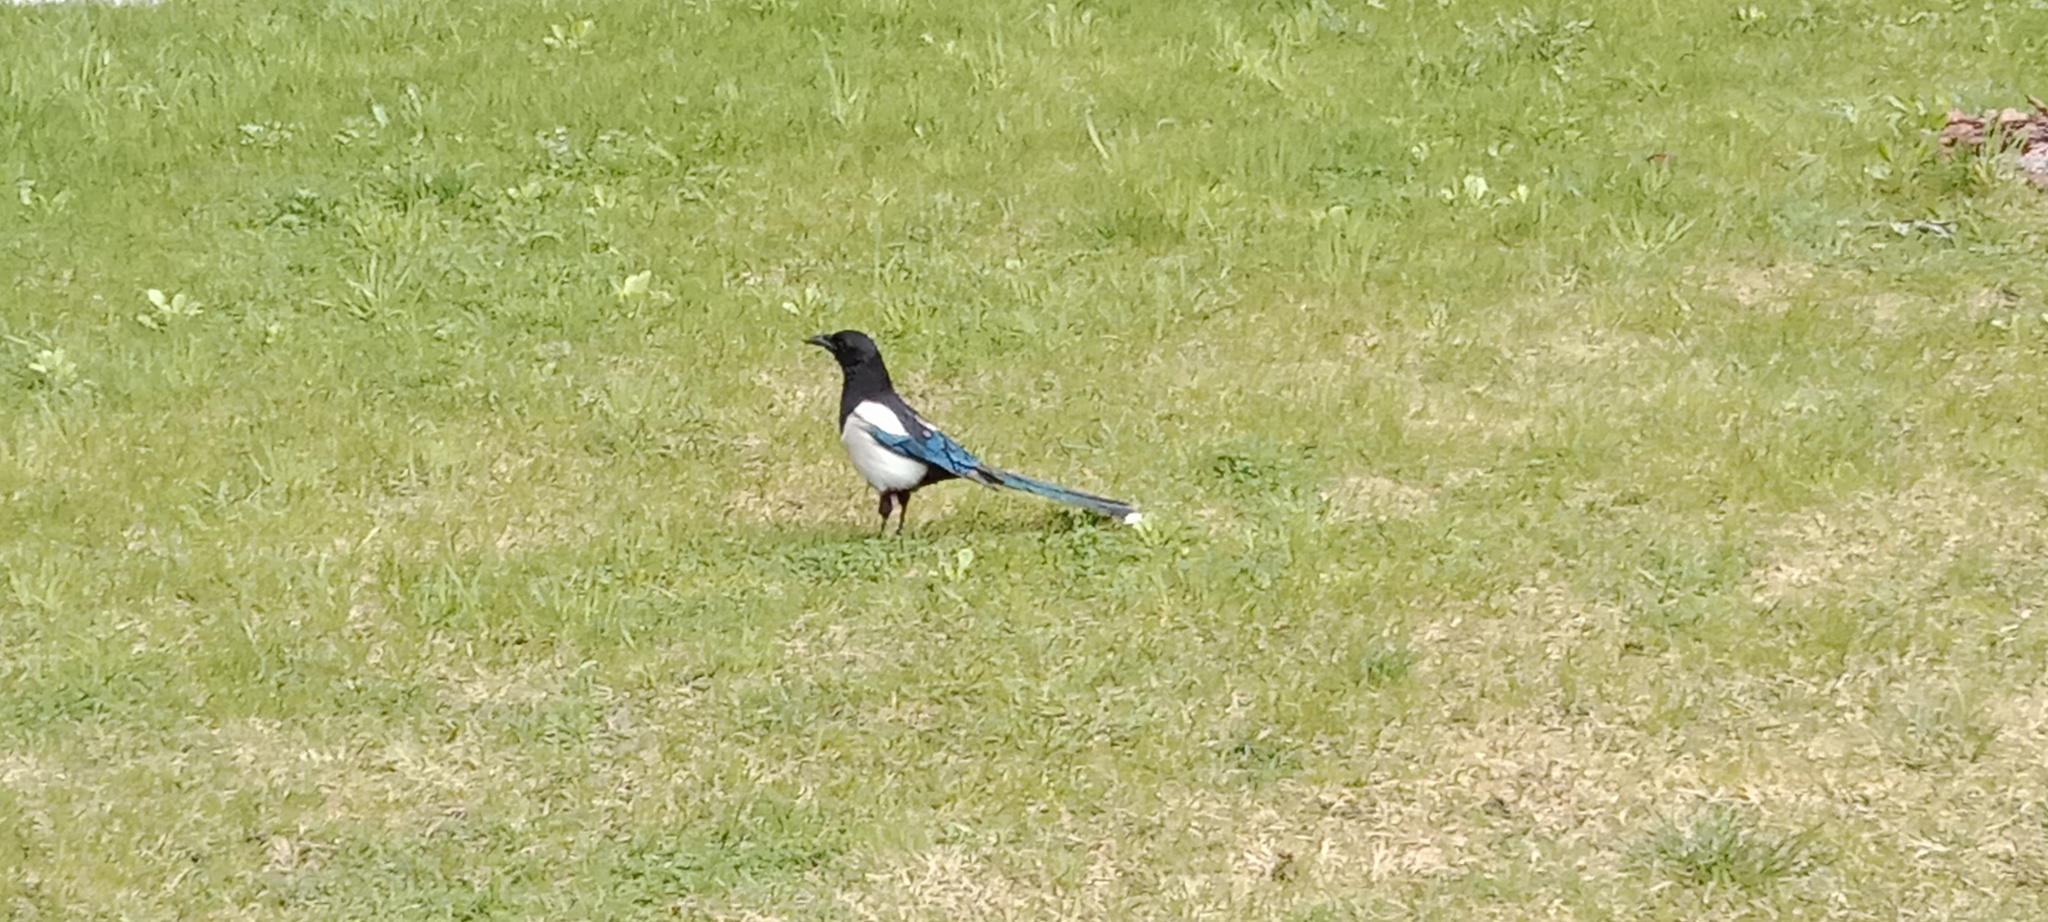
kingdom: Animalia
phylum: Chordata
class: Aves
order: Passeriformes
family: Corvidae
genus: Pica
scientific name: Pica pica
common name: Eurasian magpie
